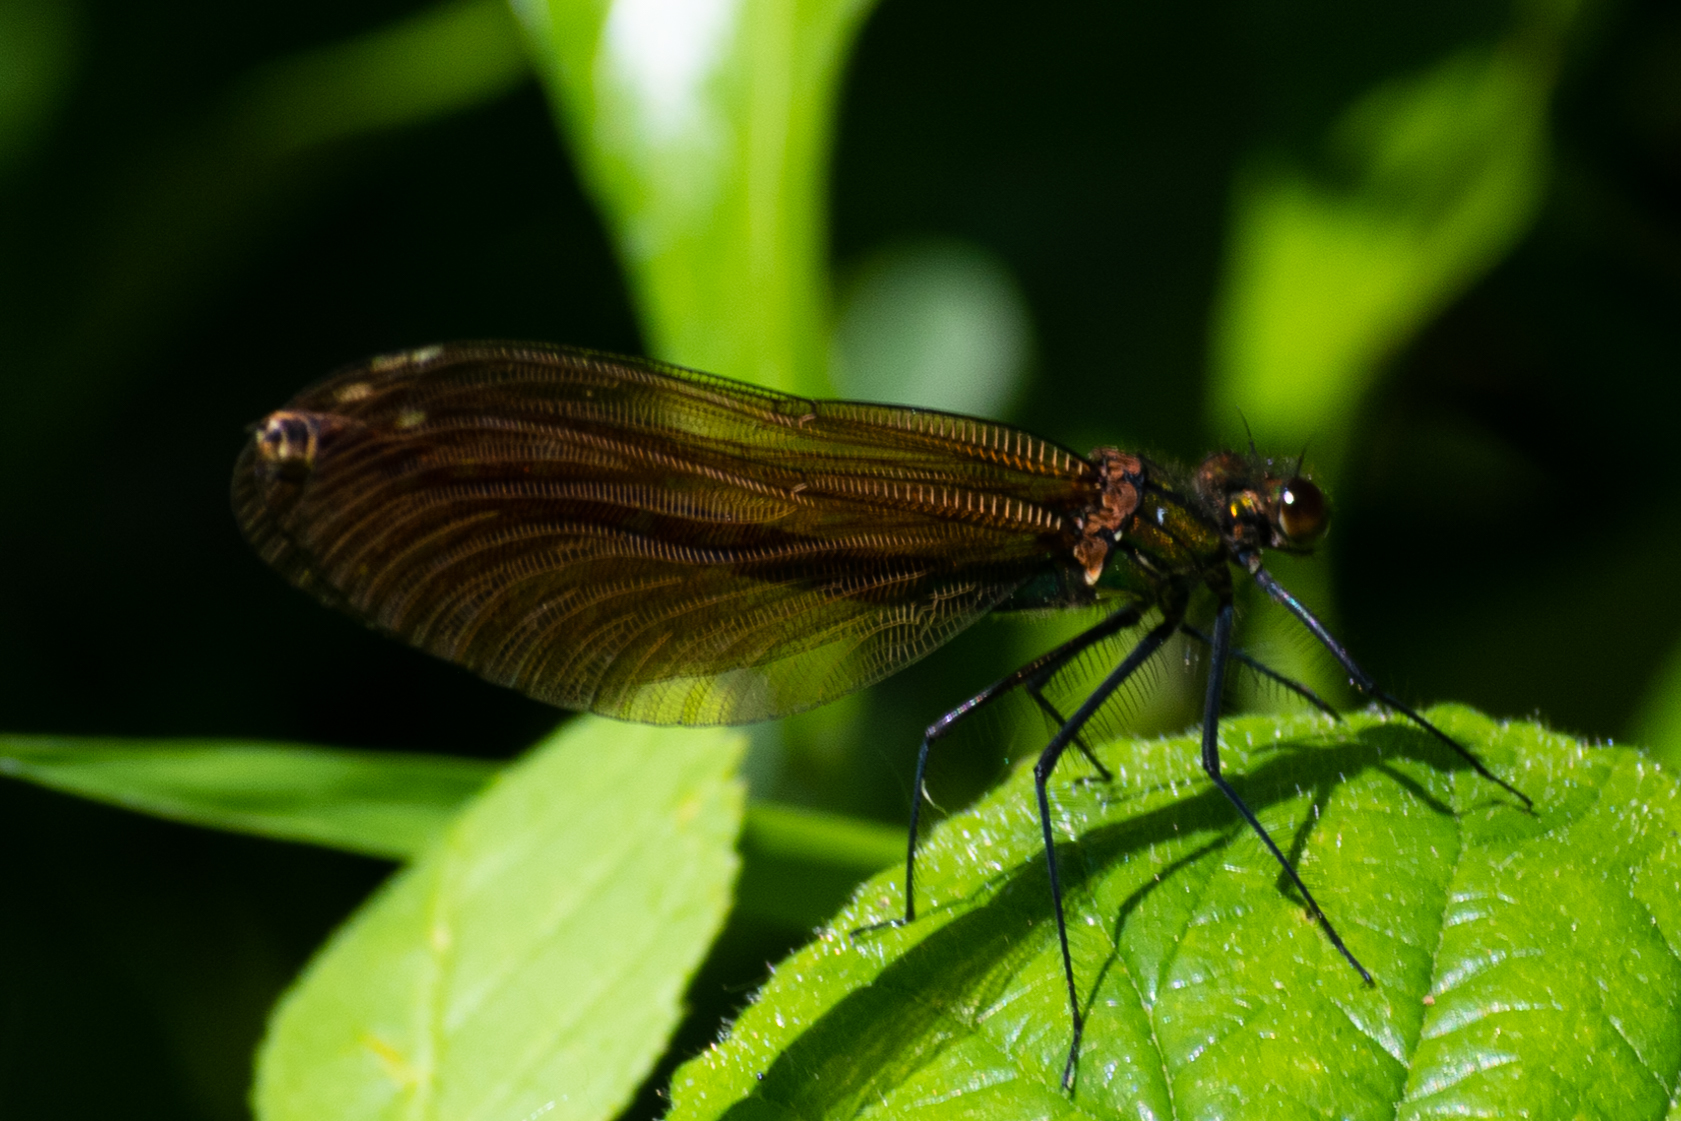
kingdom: Animalia
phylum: Arthropoda
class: Insecta
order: Odonata
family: Calopterygidae
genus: Calopteryx
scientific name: Calopteryx virgo
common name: Beautiful demoiselle
